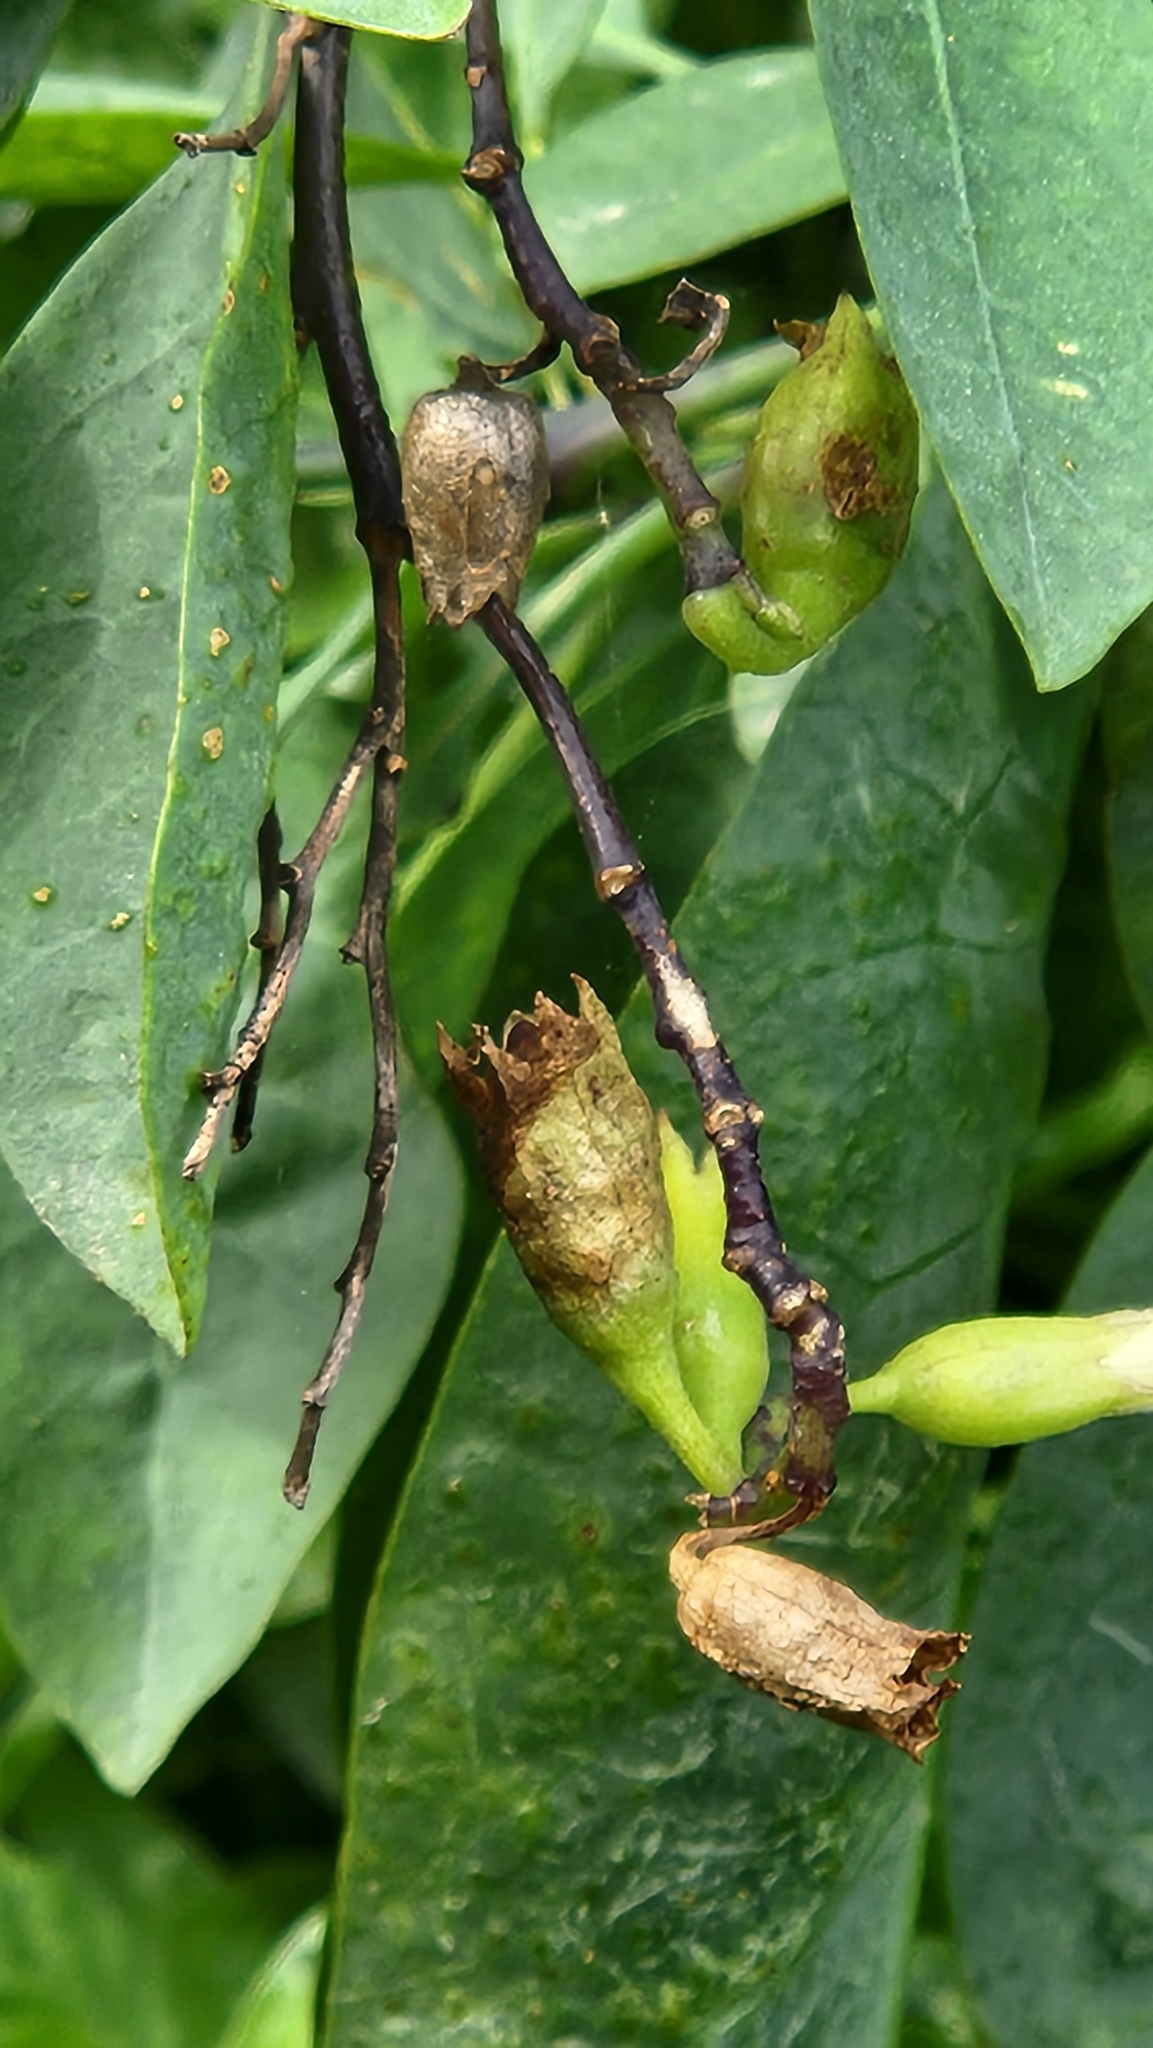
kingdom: Plantae
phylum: Tracheophyta
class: Magnoliopsida
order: Solanales
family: Solanaceae
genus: Nicotiana
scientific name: Nicotiana glauca
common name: Tree tobacco
